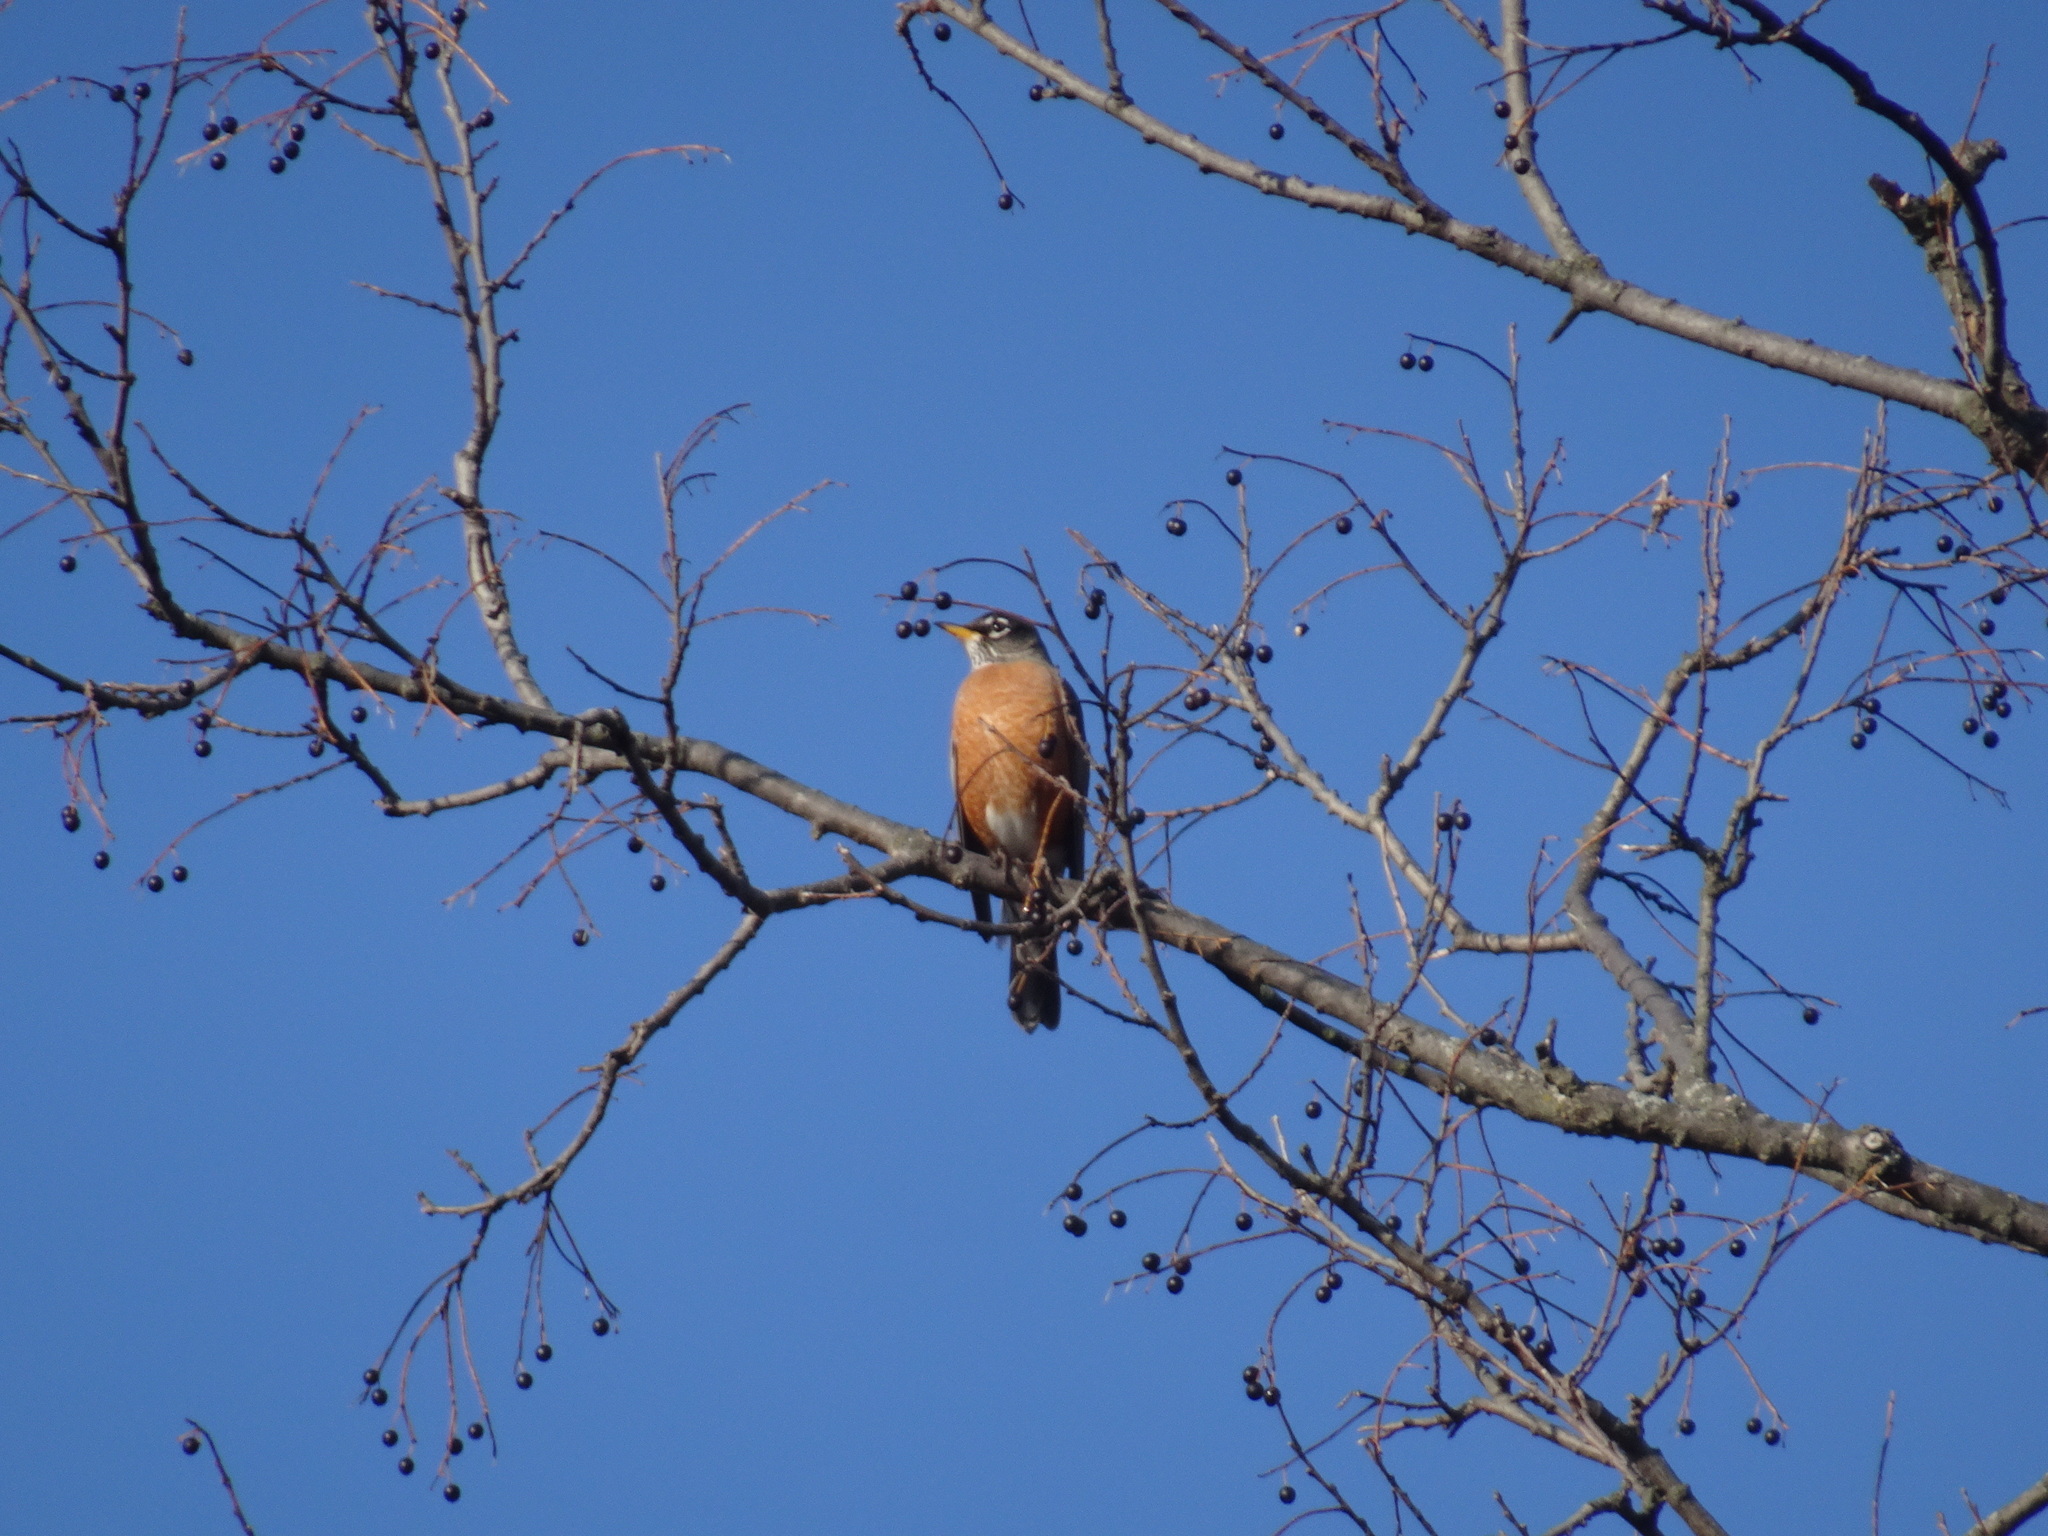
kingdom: Animalia
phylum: Chordata
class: Aves
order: Passeriformes
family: Troglodytidae
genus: Thryothorus
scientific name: Thryothorus ludovicianus
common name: Carolina wren
